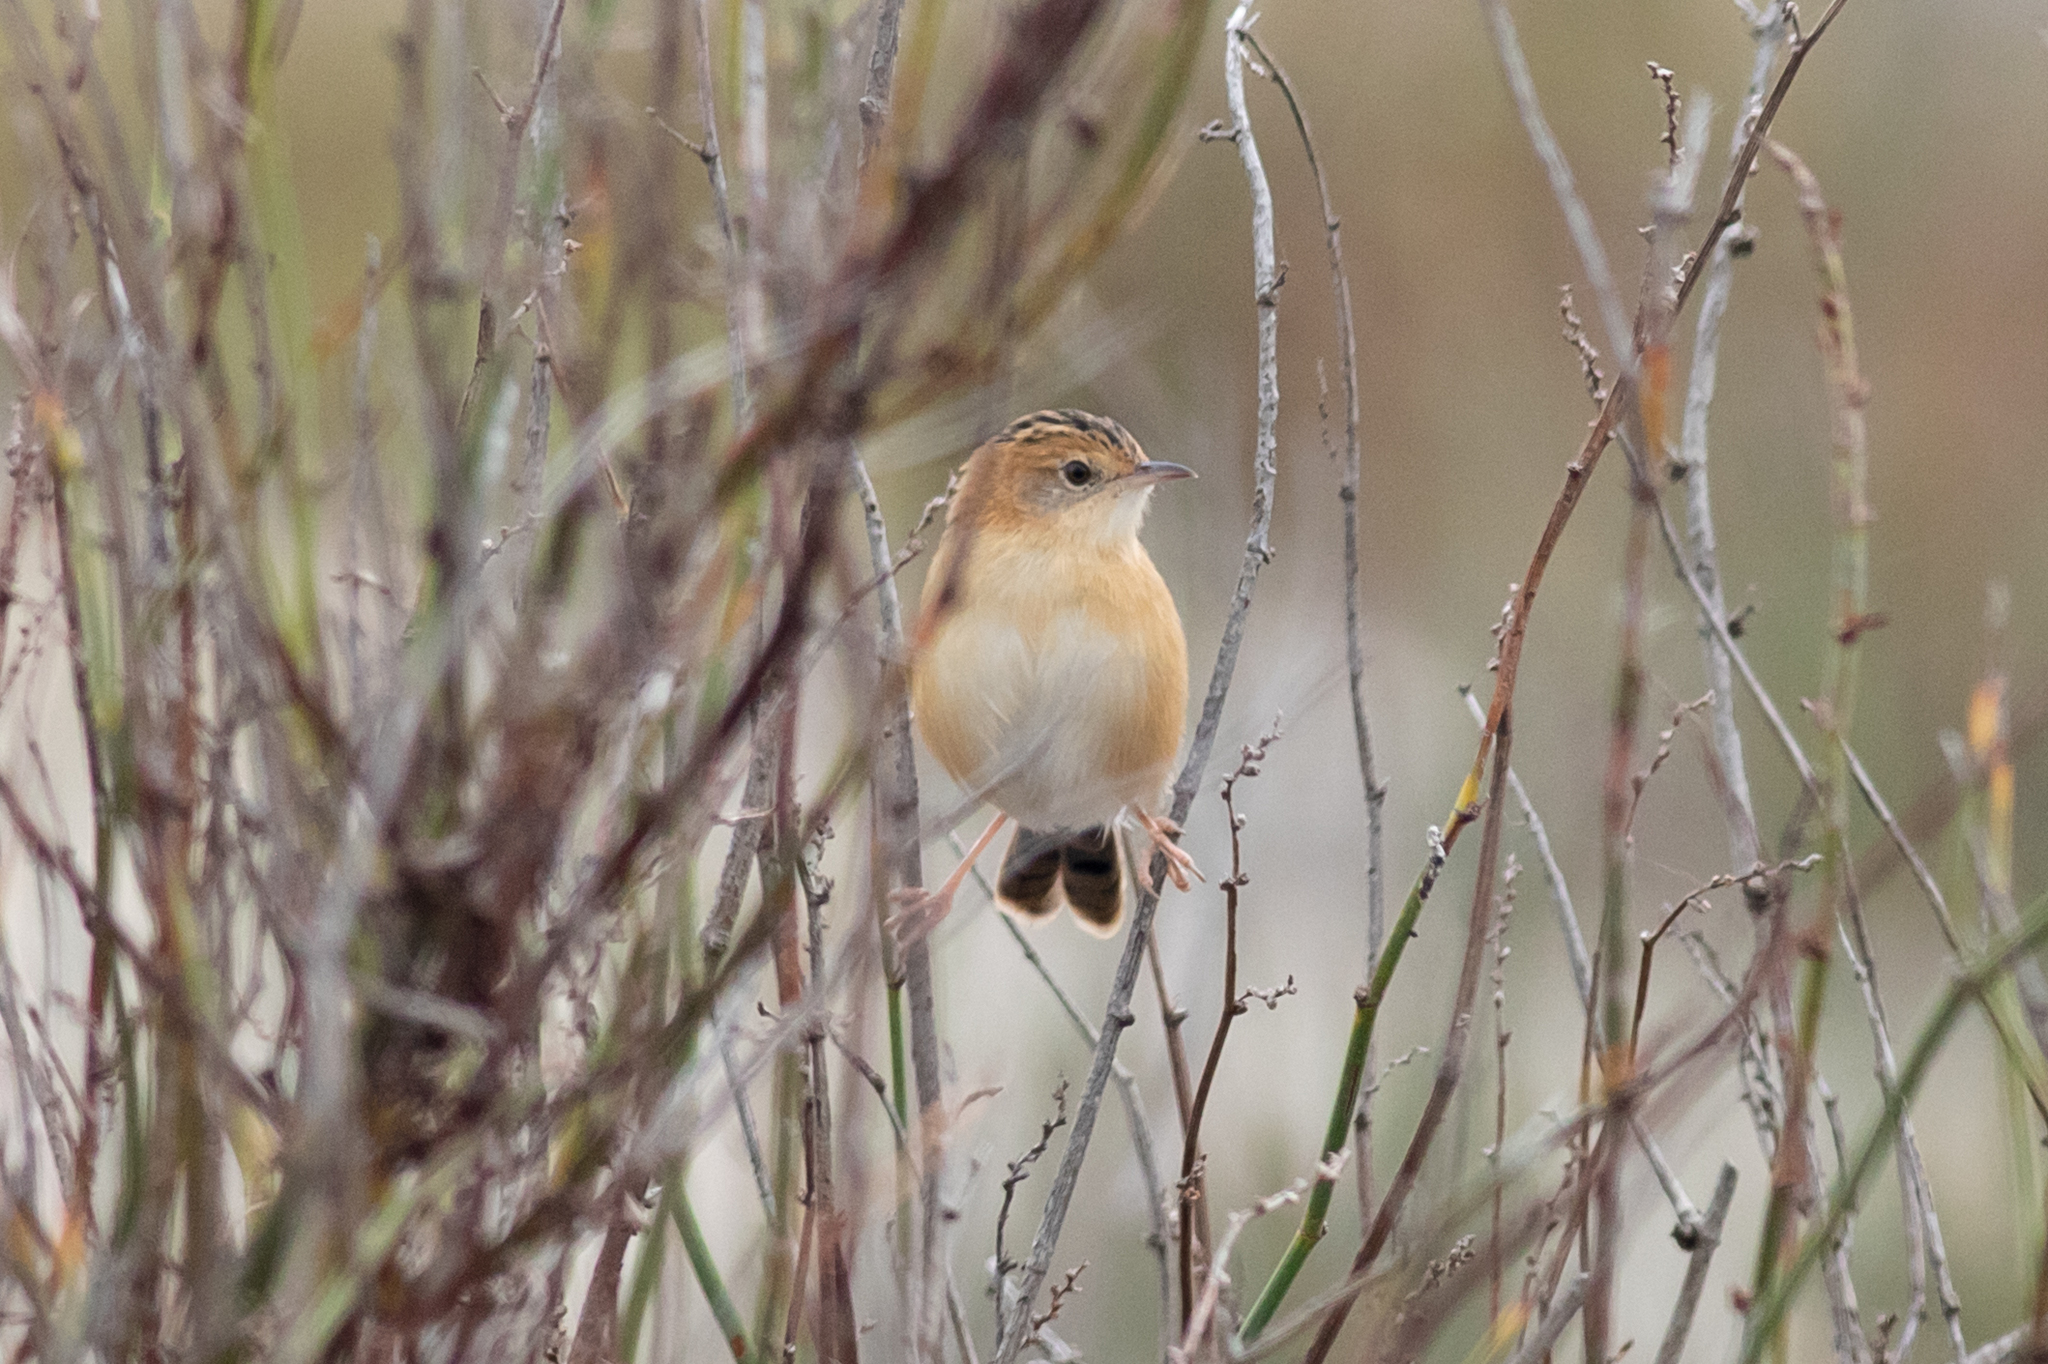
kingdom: Animalia
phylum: Chordata
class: Aves
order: Passeriformes
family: Cisticolidae
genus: Cisticola
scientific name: Cisticola exilis
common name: Golden-headed cisticola
